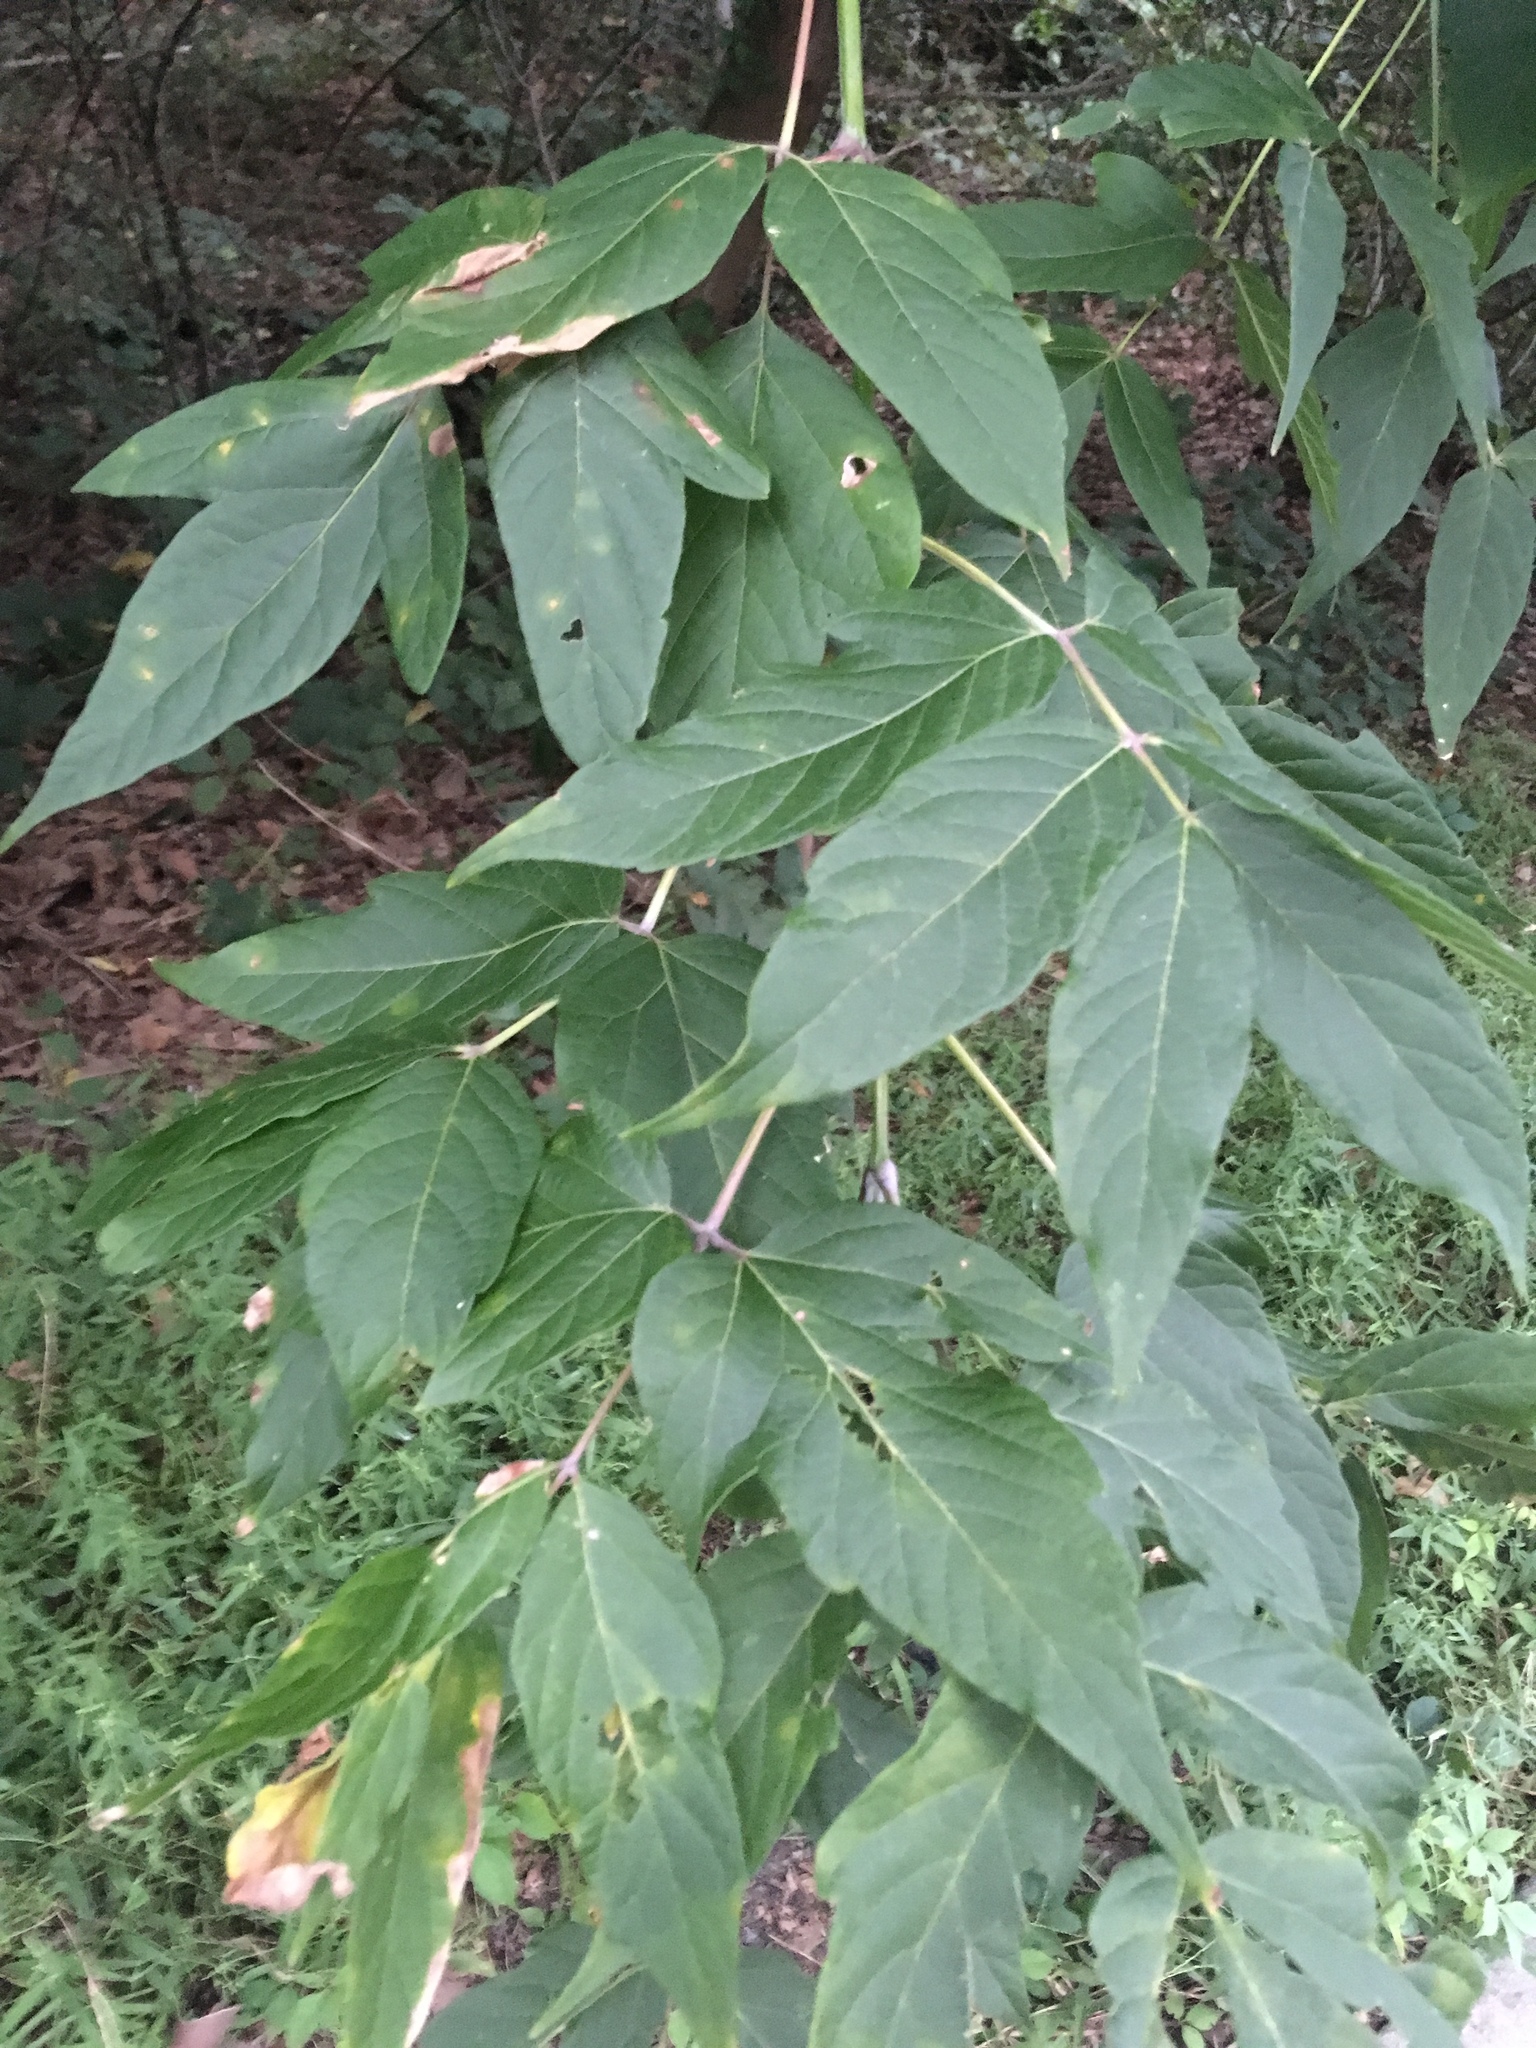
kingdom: Plantae
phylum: Tracheophyta
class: Magnoliopsida
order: Sapindales
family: Sapindaceae
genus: Acer
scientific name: Acer negundo
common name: Ashleaf maple
